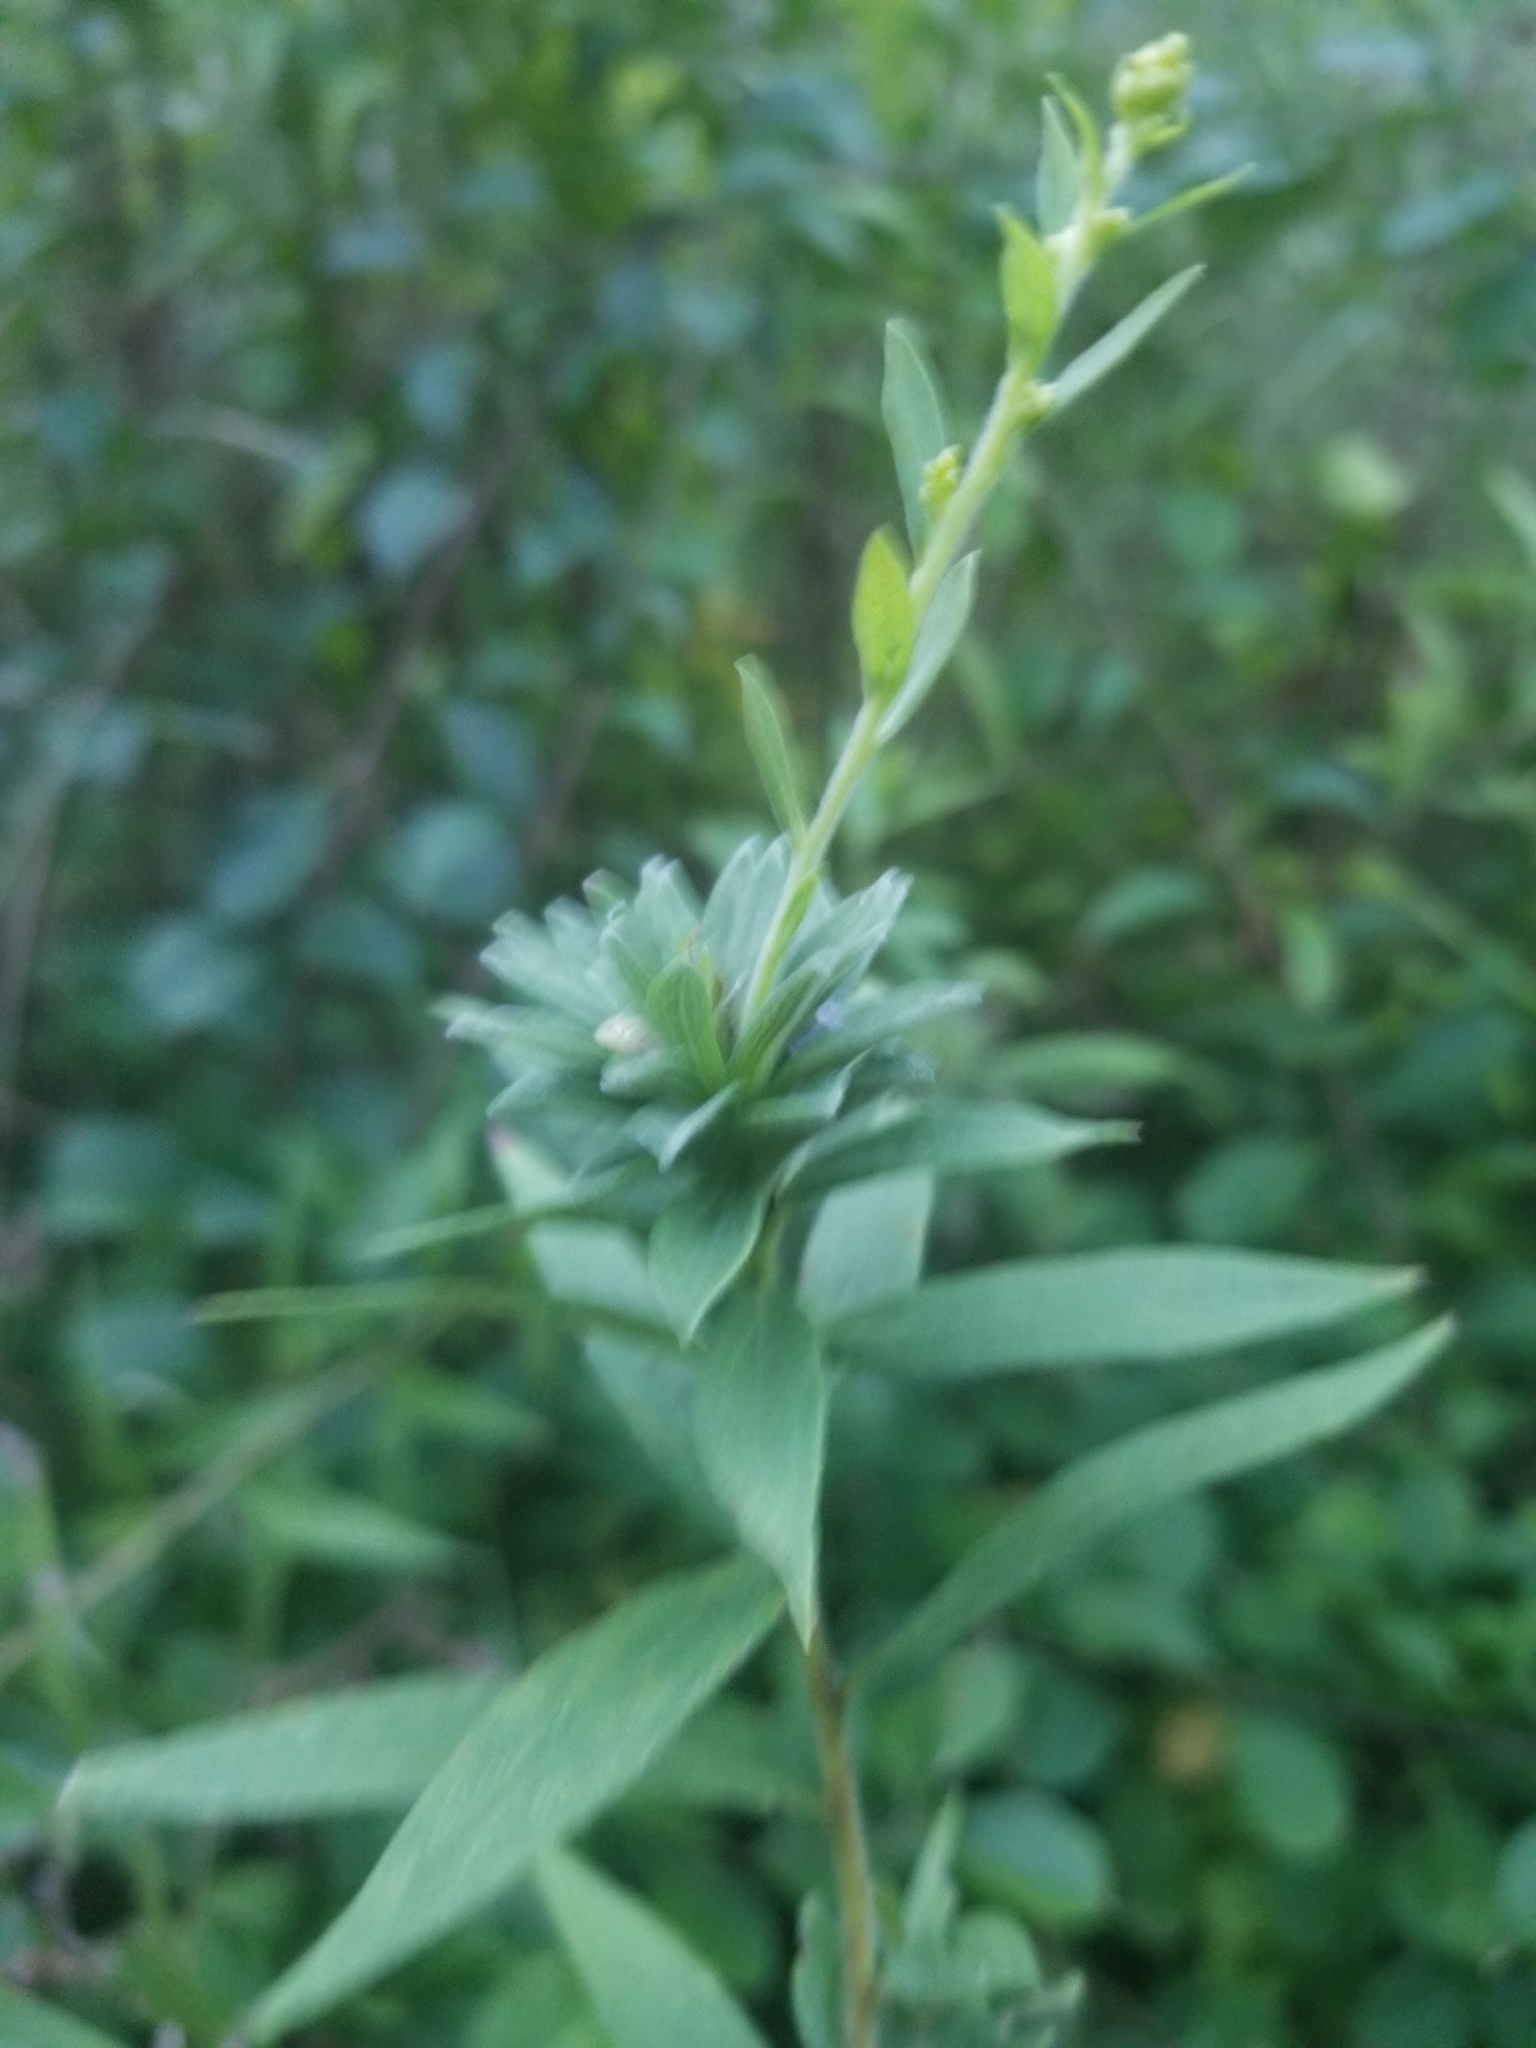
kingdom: Animalia
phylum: Arthropoda
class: Insecta
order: Diptera
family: Cecidomyiidae
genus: Asphondylia
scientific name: Asphondylia solidaginis
